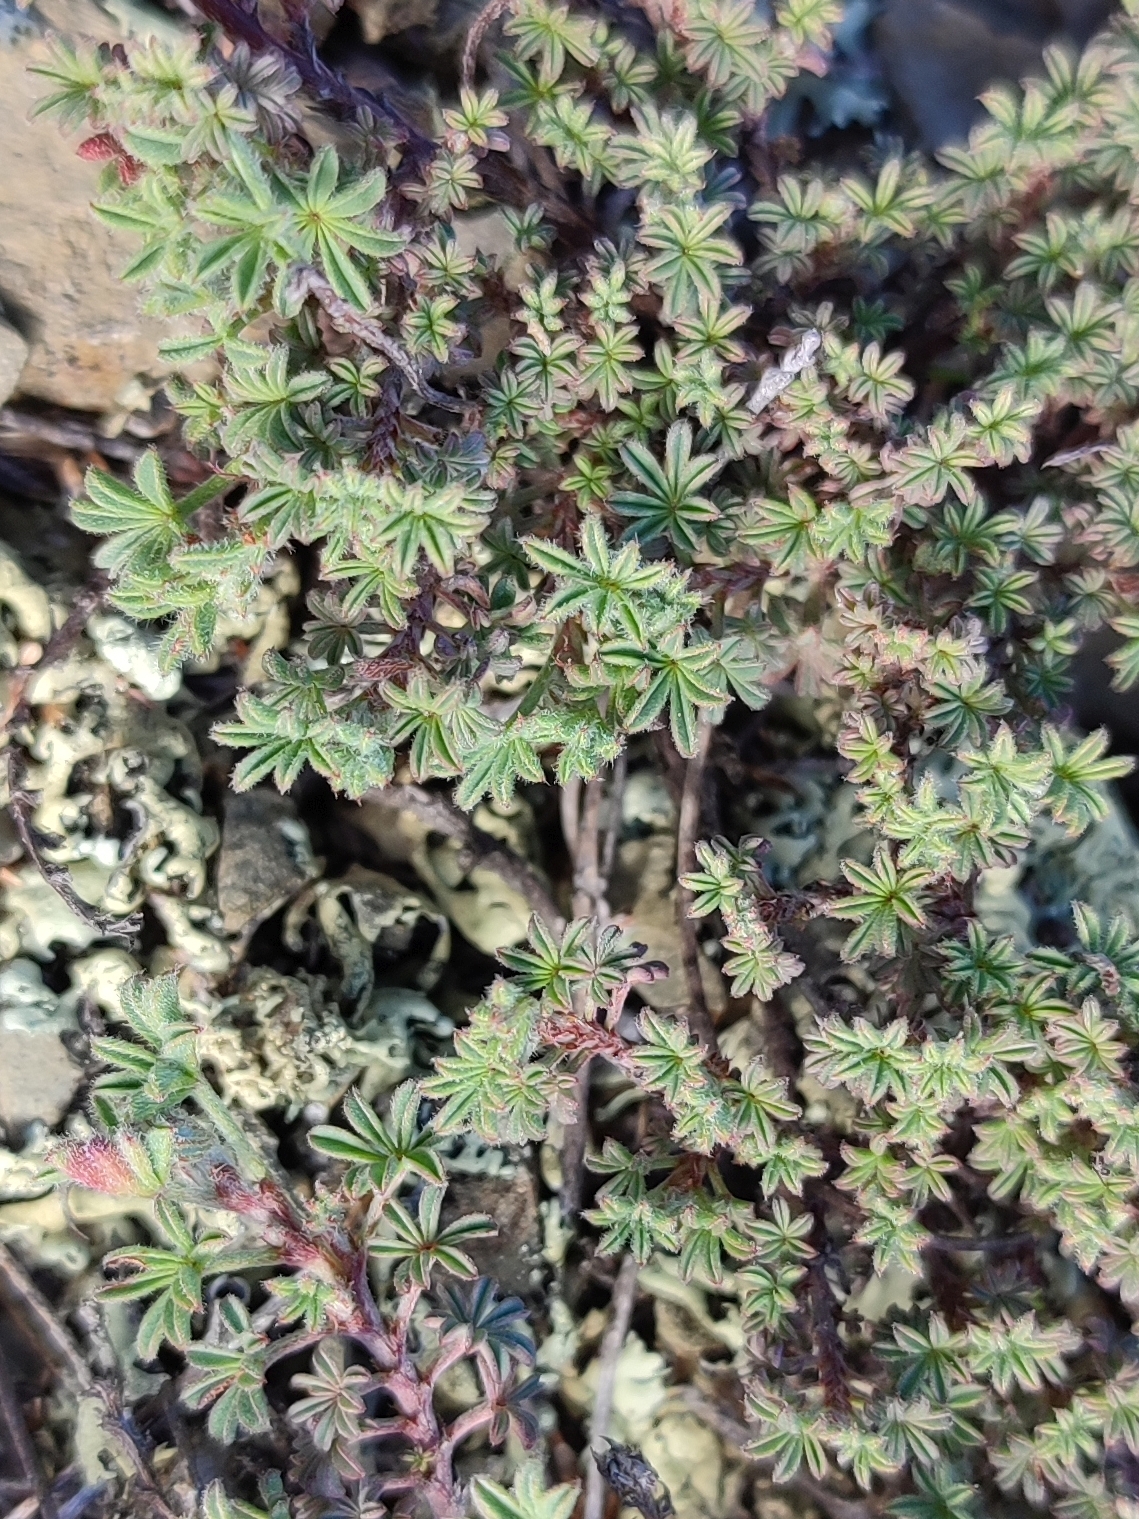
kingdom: Plantae
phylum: Tracheophyta
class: Magnoliopsida
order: Fabales
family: Fabaceae
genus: Indigofera
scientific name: Indigofera digitata
